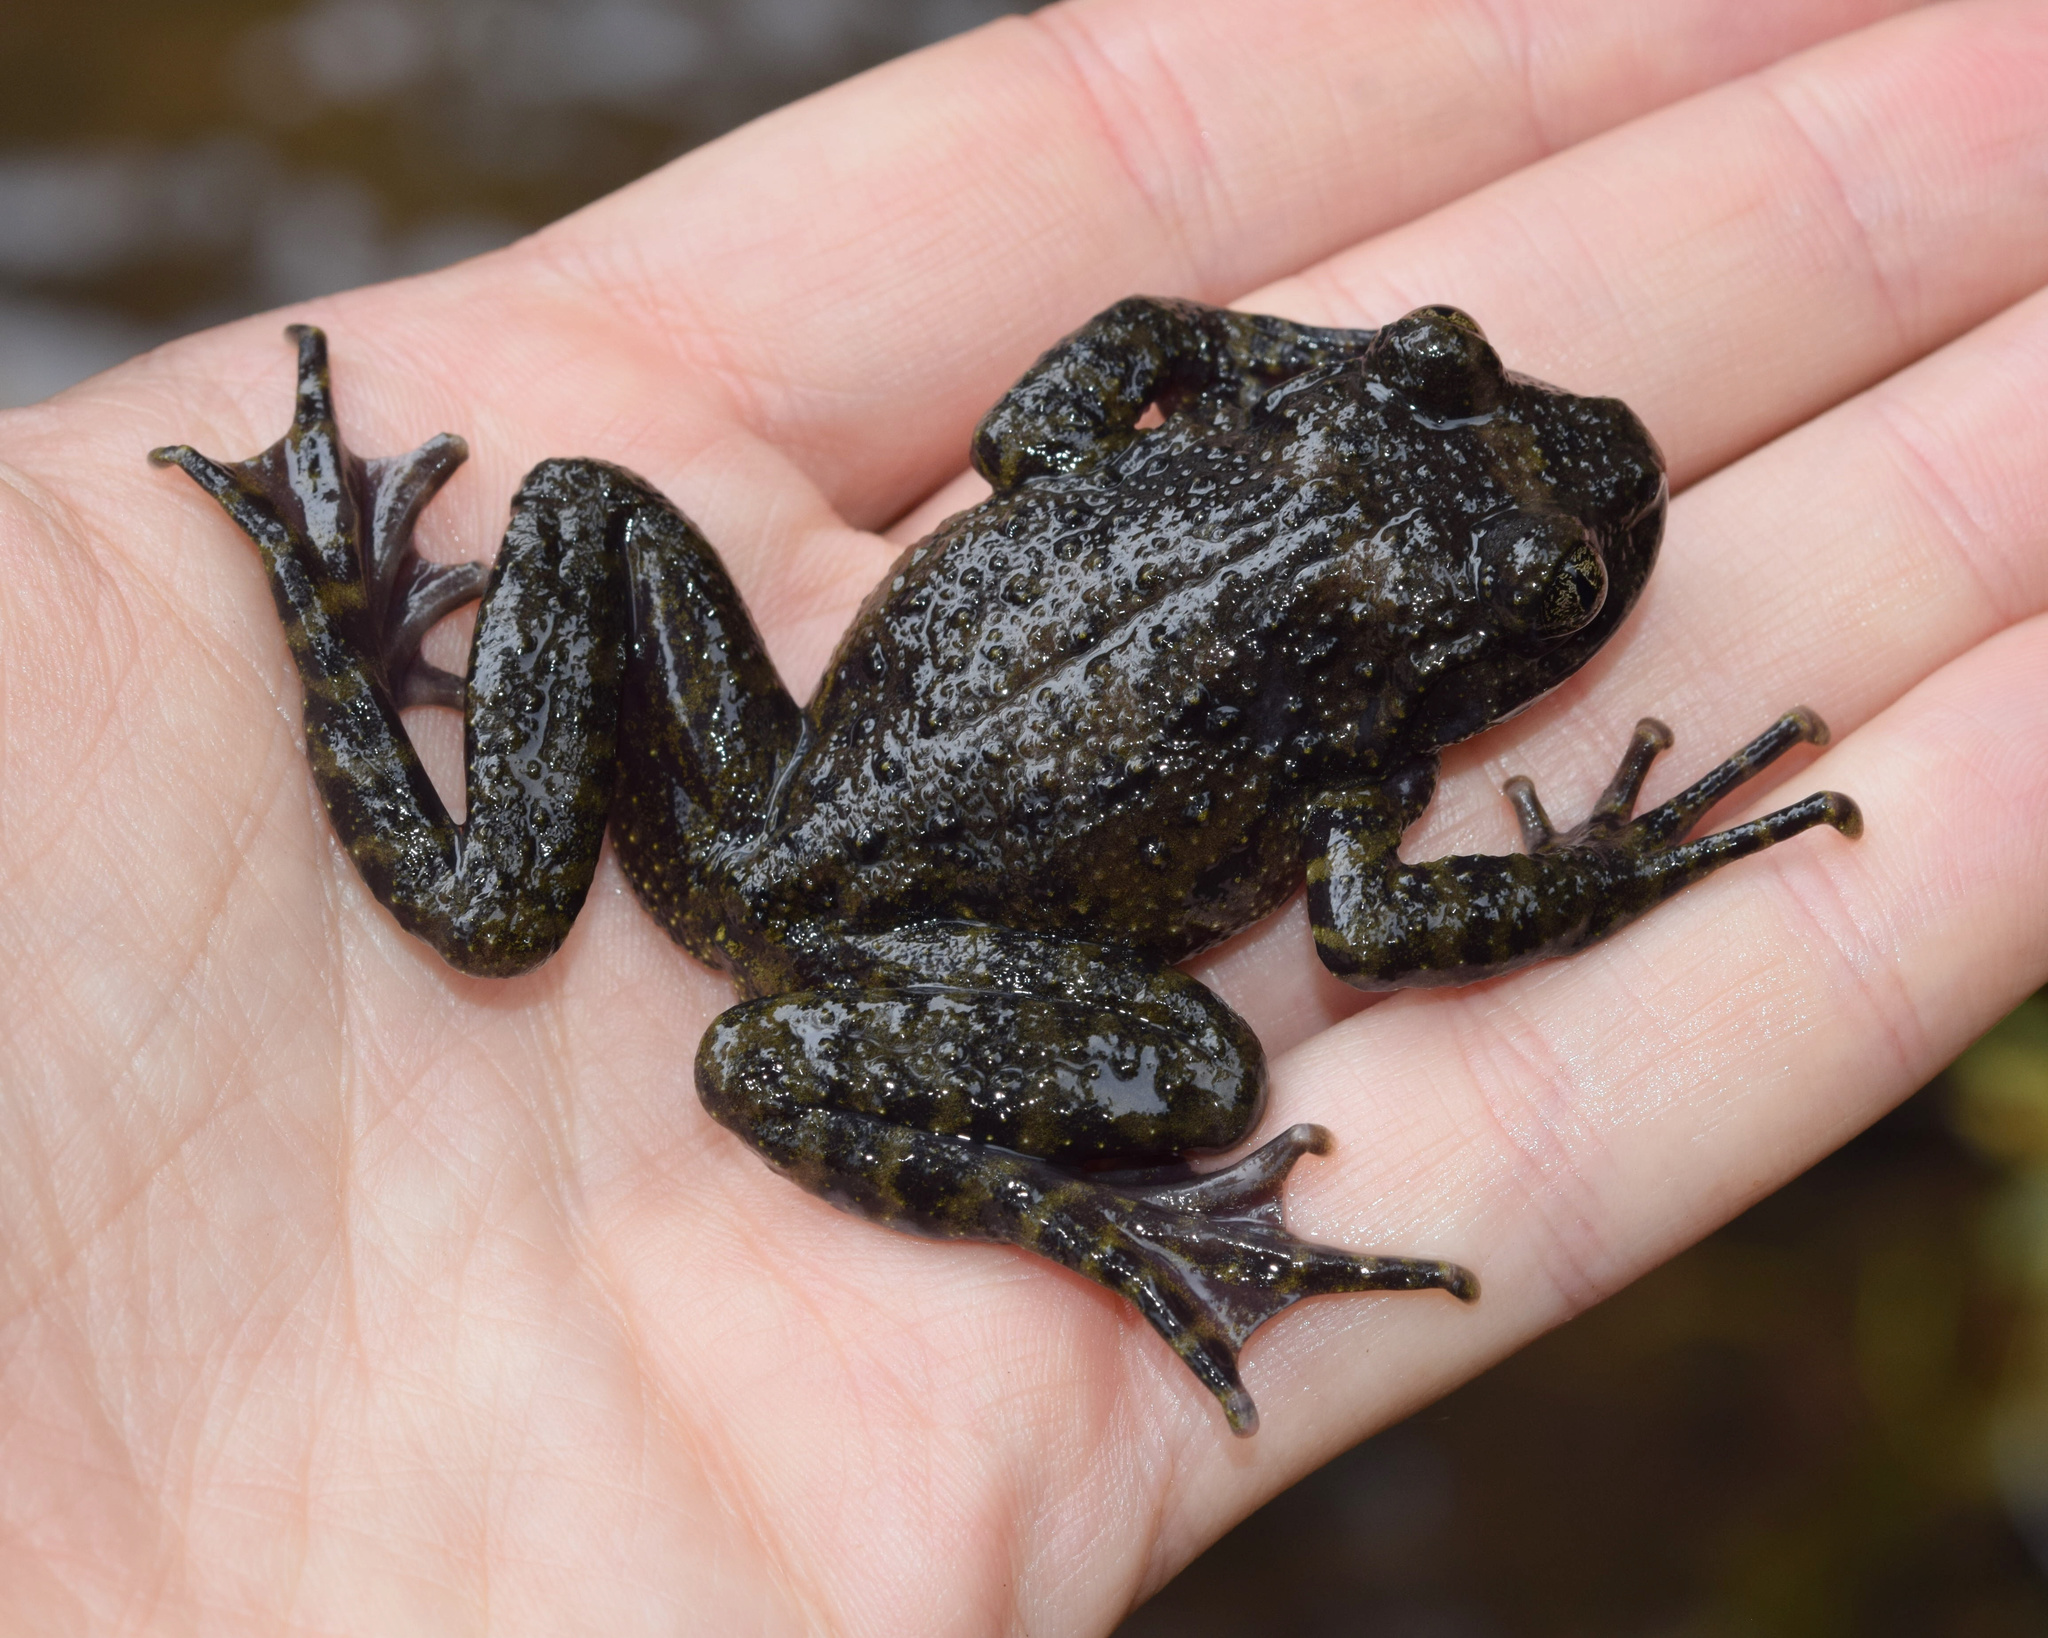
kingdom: Animalia
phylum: Chordata
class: Amphibia
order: Anura
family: Heleophrynidae
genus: Hadromophryne
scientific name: Hadromophryne natalensis
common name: Natal ghost frog
